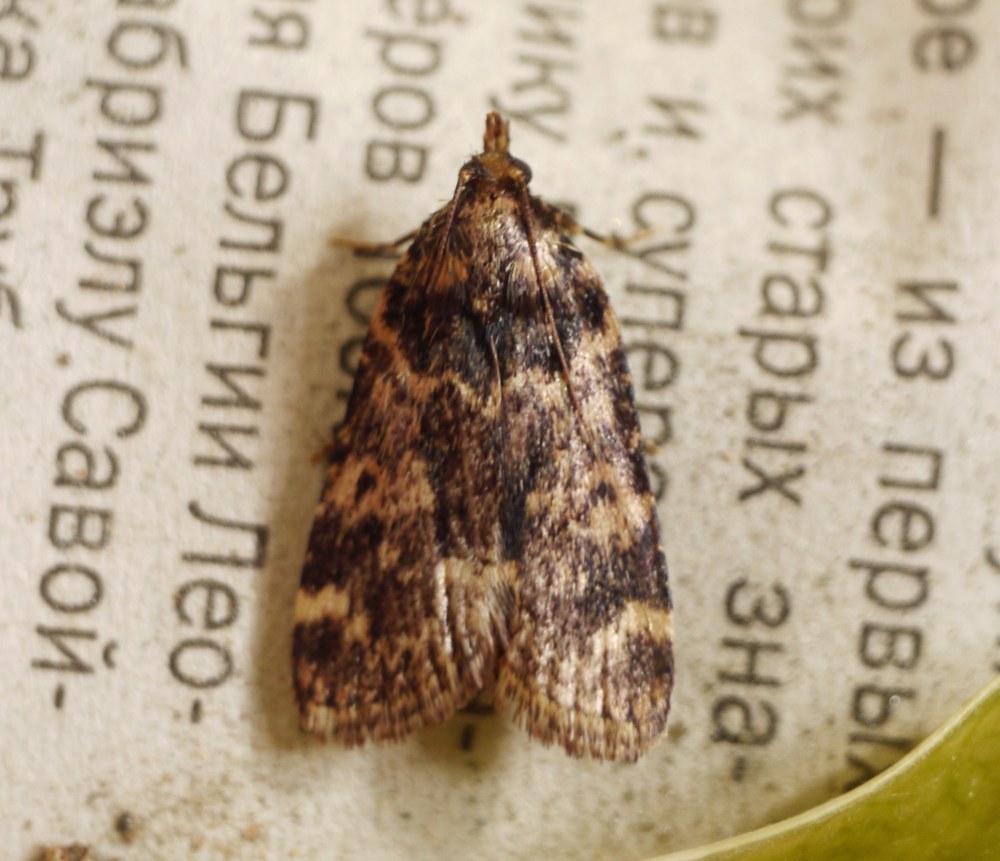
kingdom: Animalia
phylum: Arthropoda
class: Insecta
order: Lepidoptera
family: Pyralidae
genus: Aglossa
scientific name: Aglossa caprealis
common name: Small tabby
